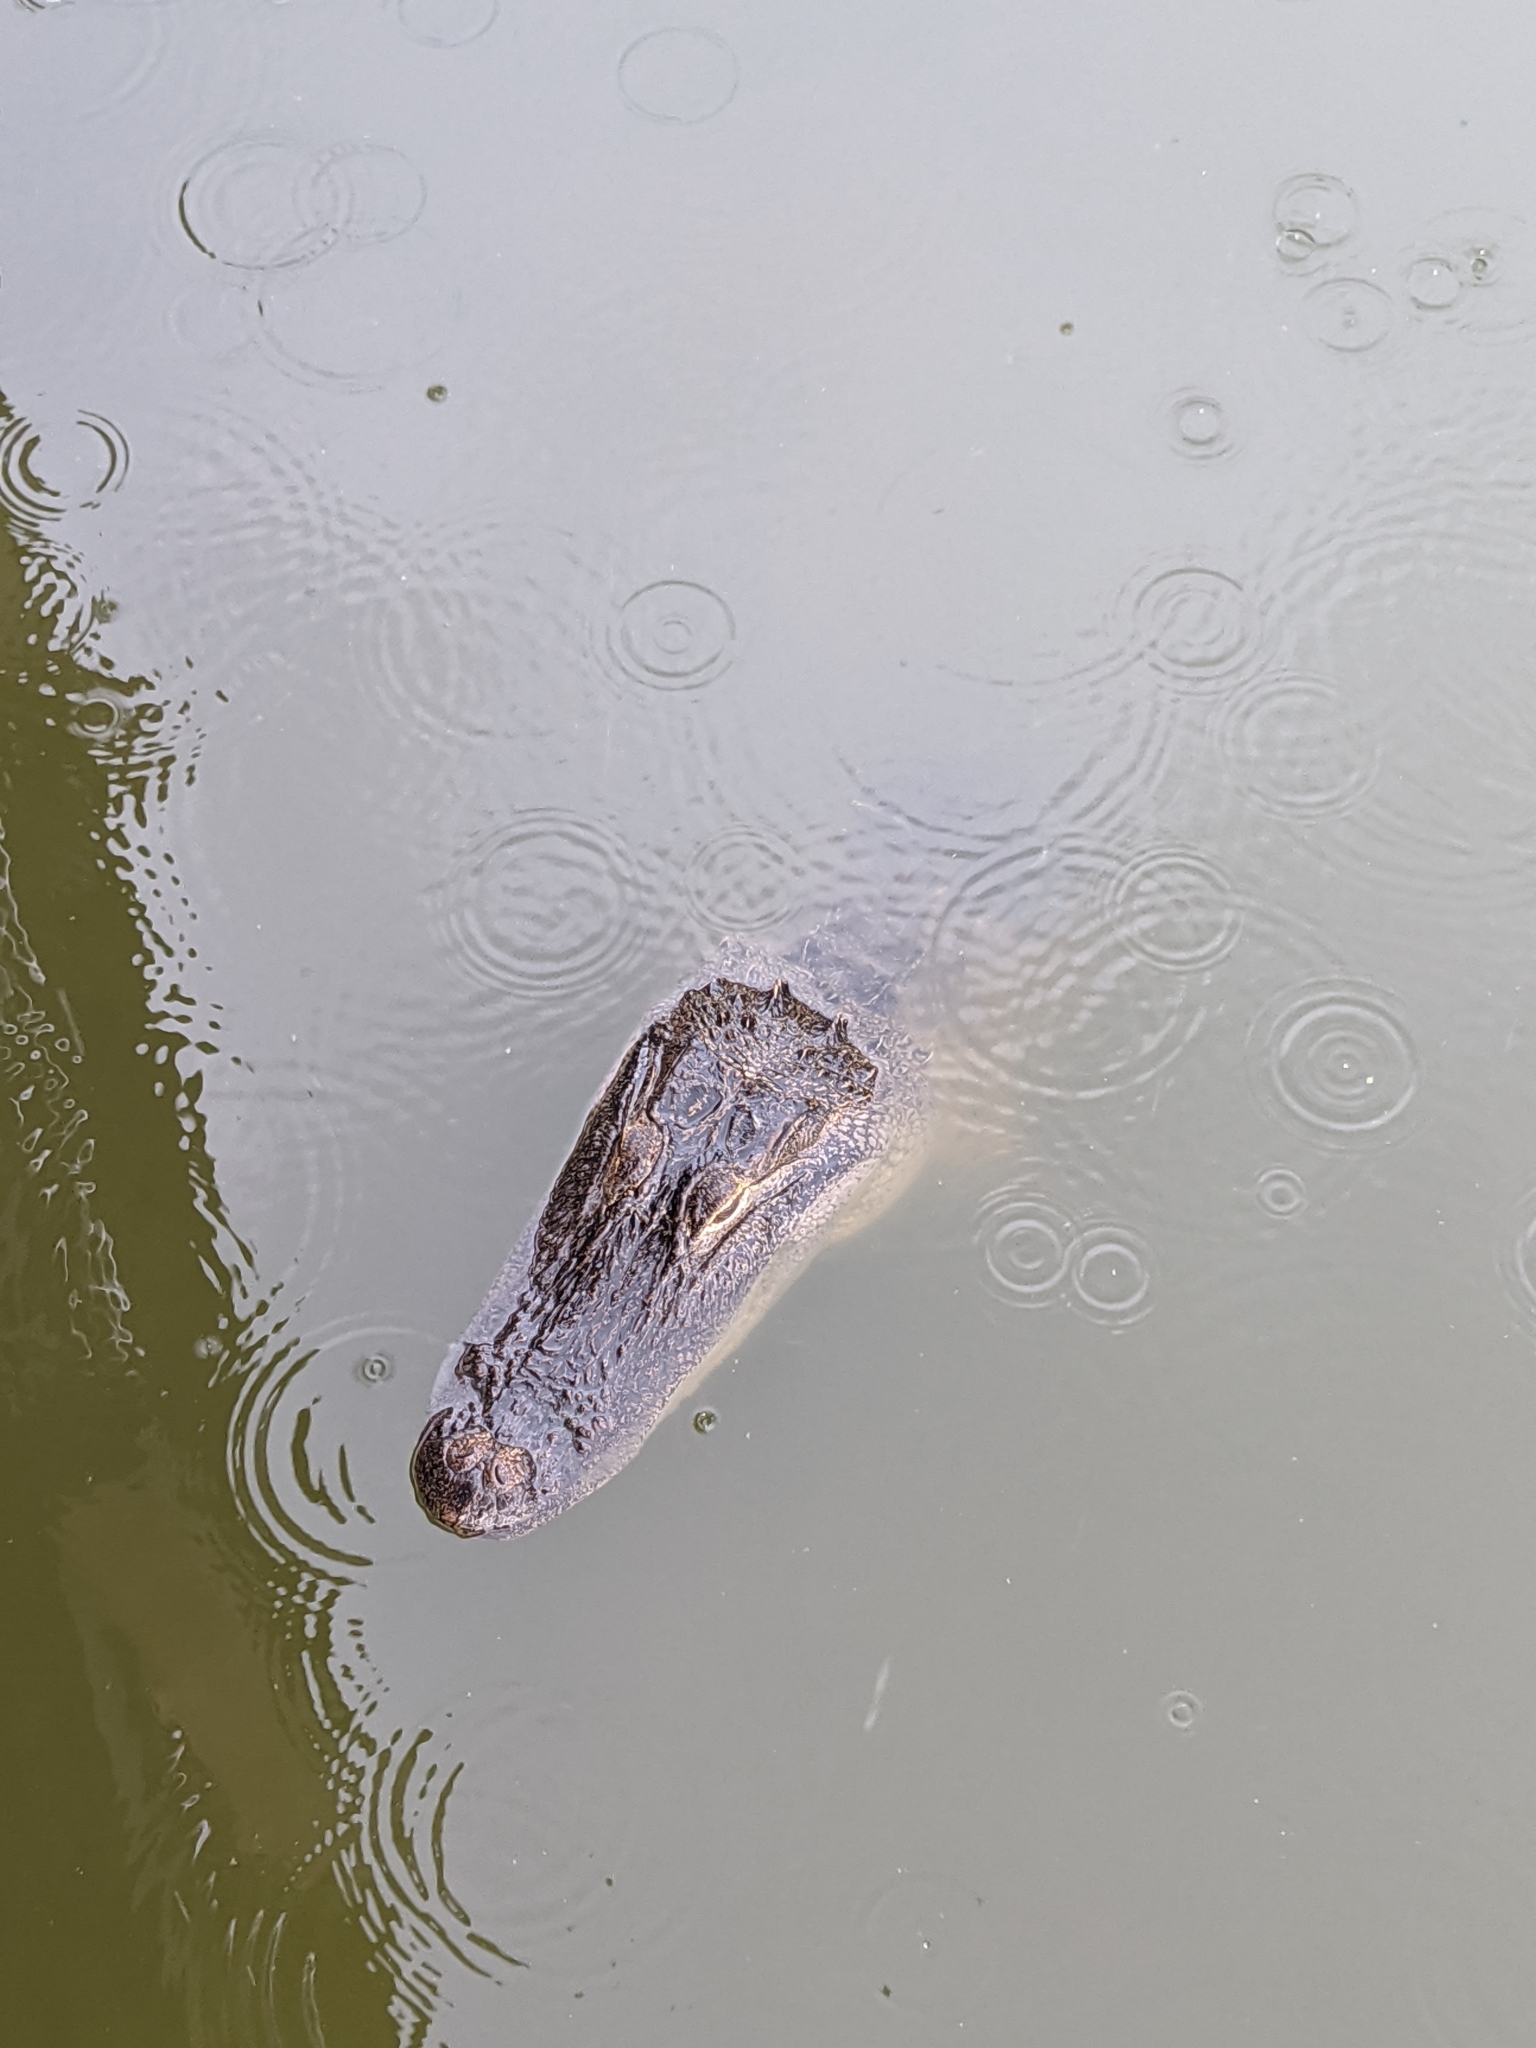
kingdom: Animalia
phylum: Chordata
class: Crocodylia
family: Alligatoridae
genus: Alligator
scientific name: Alligator mississippiensis
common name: American alligator
